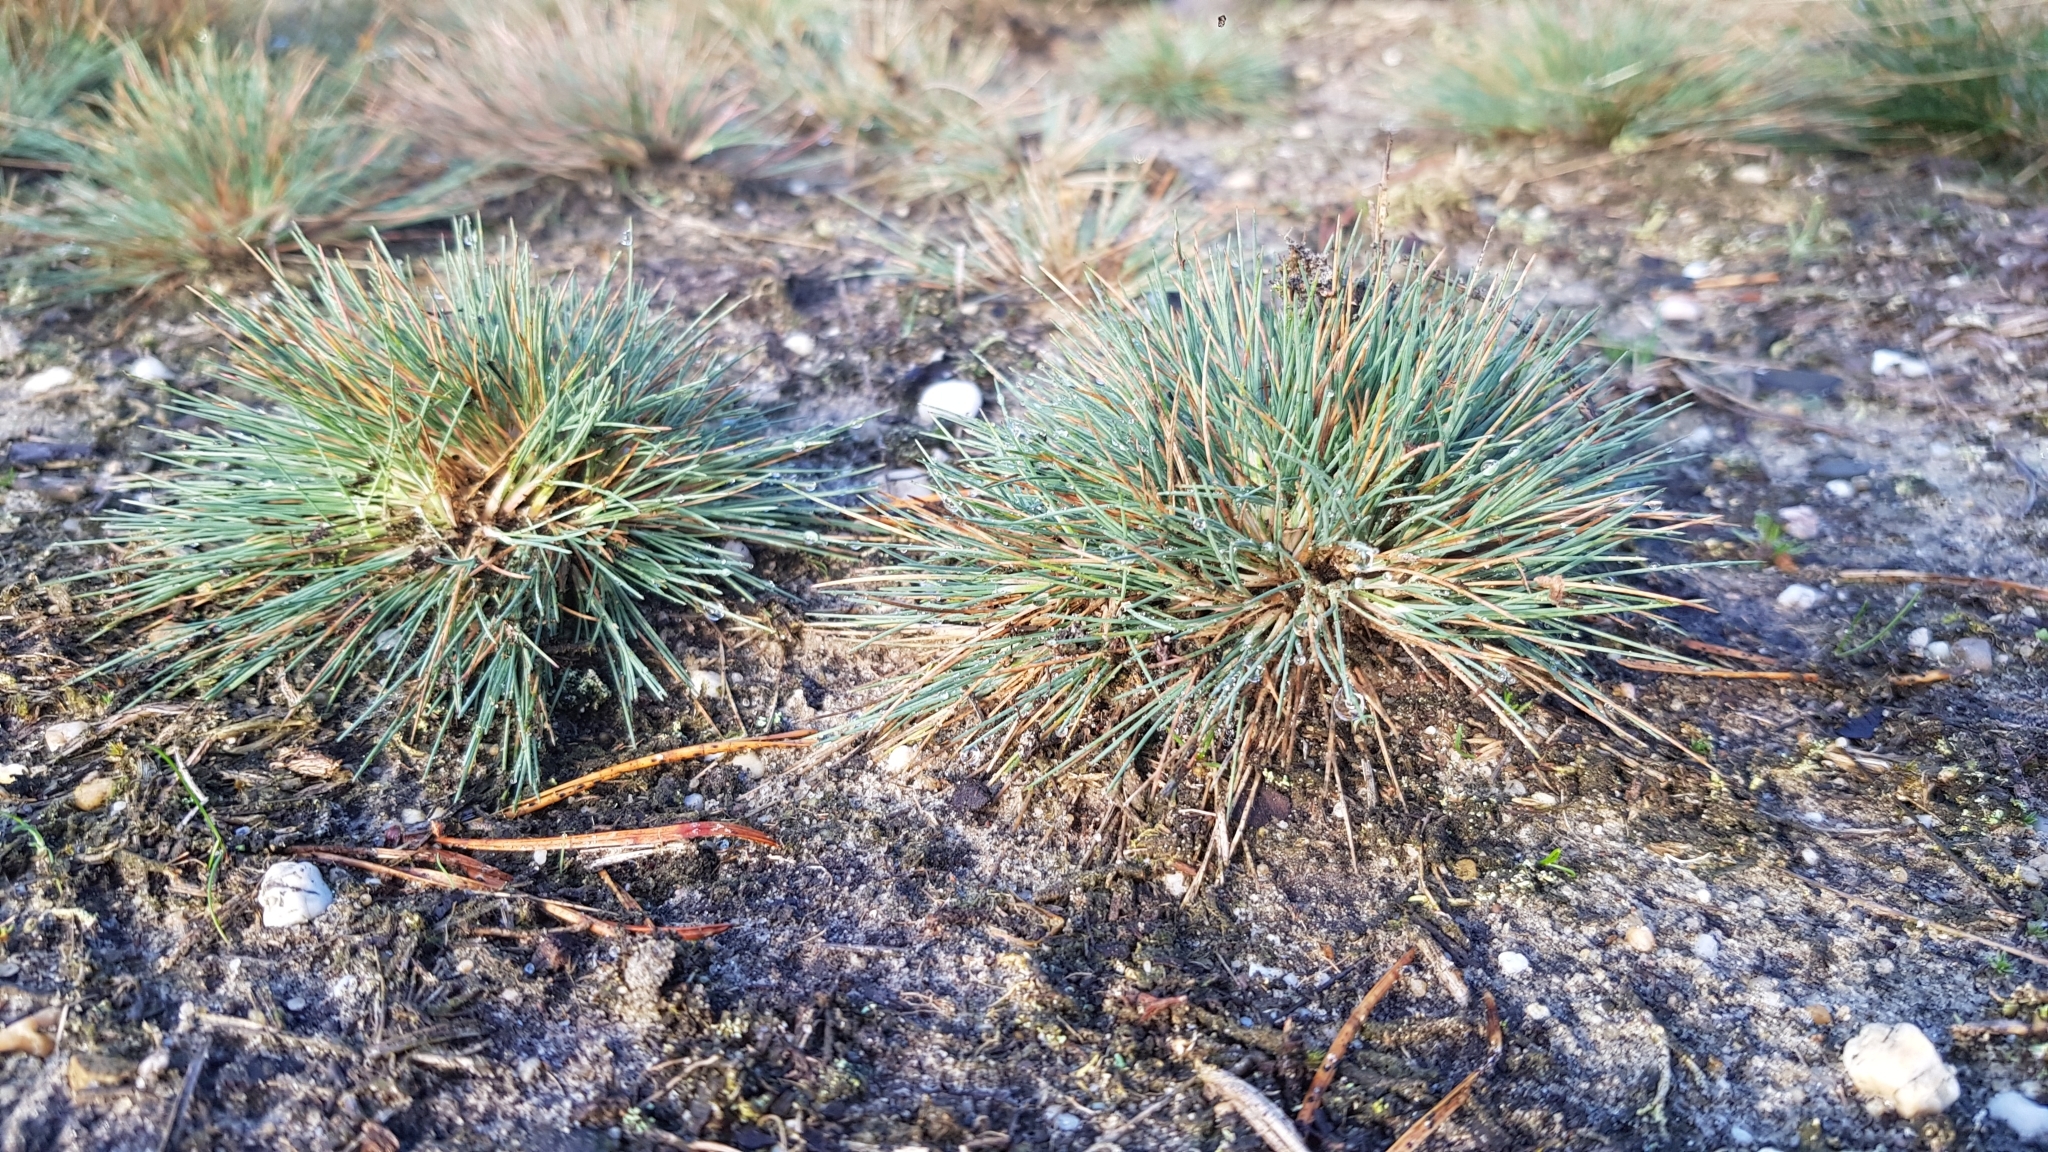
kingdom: Plantae
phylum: Tracheophyta
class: Liliopsida
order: Poales
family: Poaceae
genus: Corynephorus
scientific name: Corynephorus canescens
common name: Grey hair-grass
